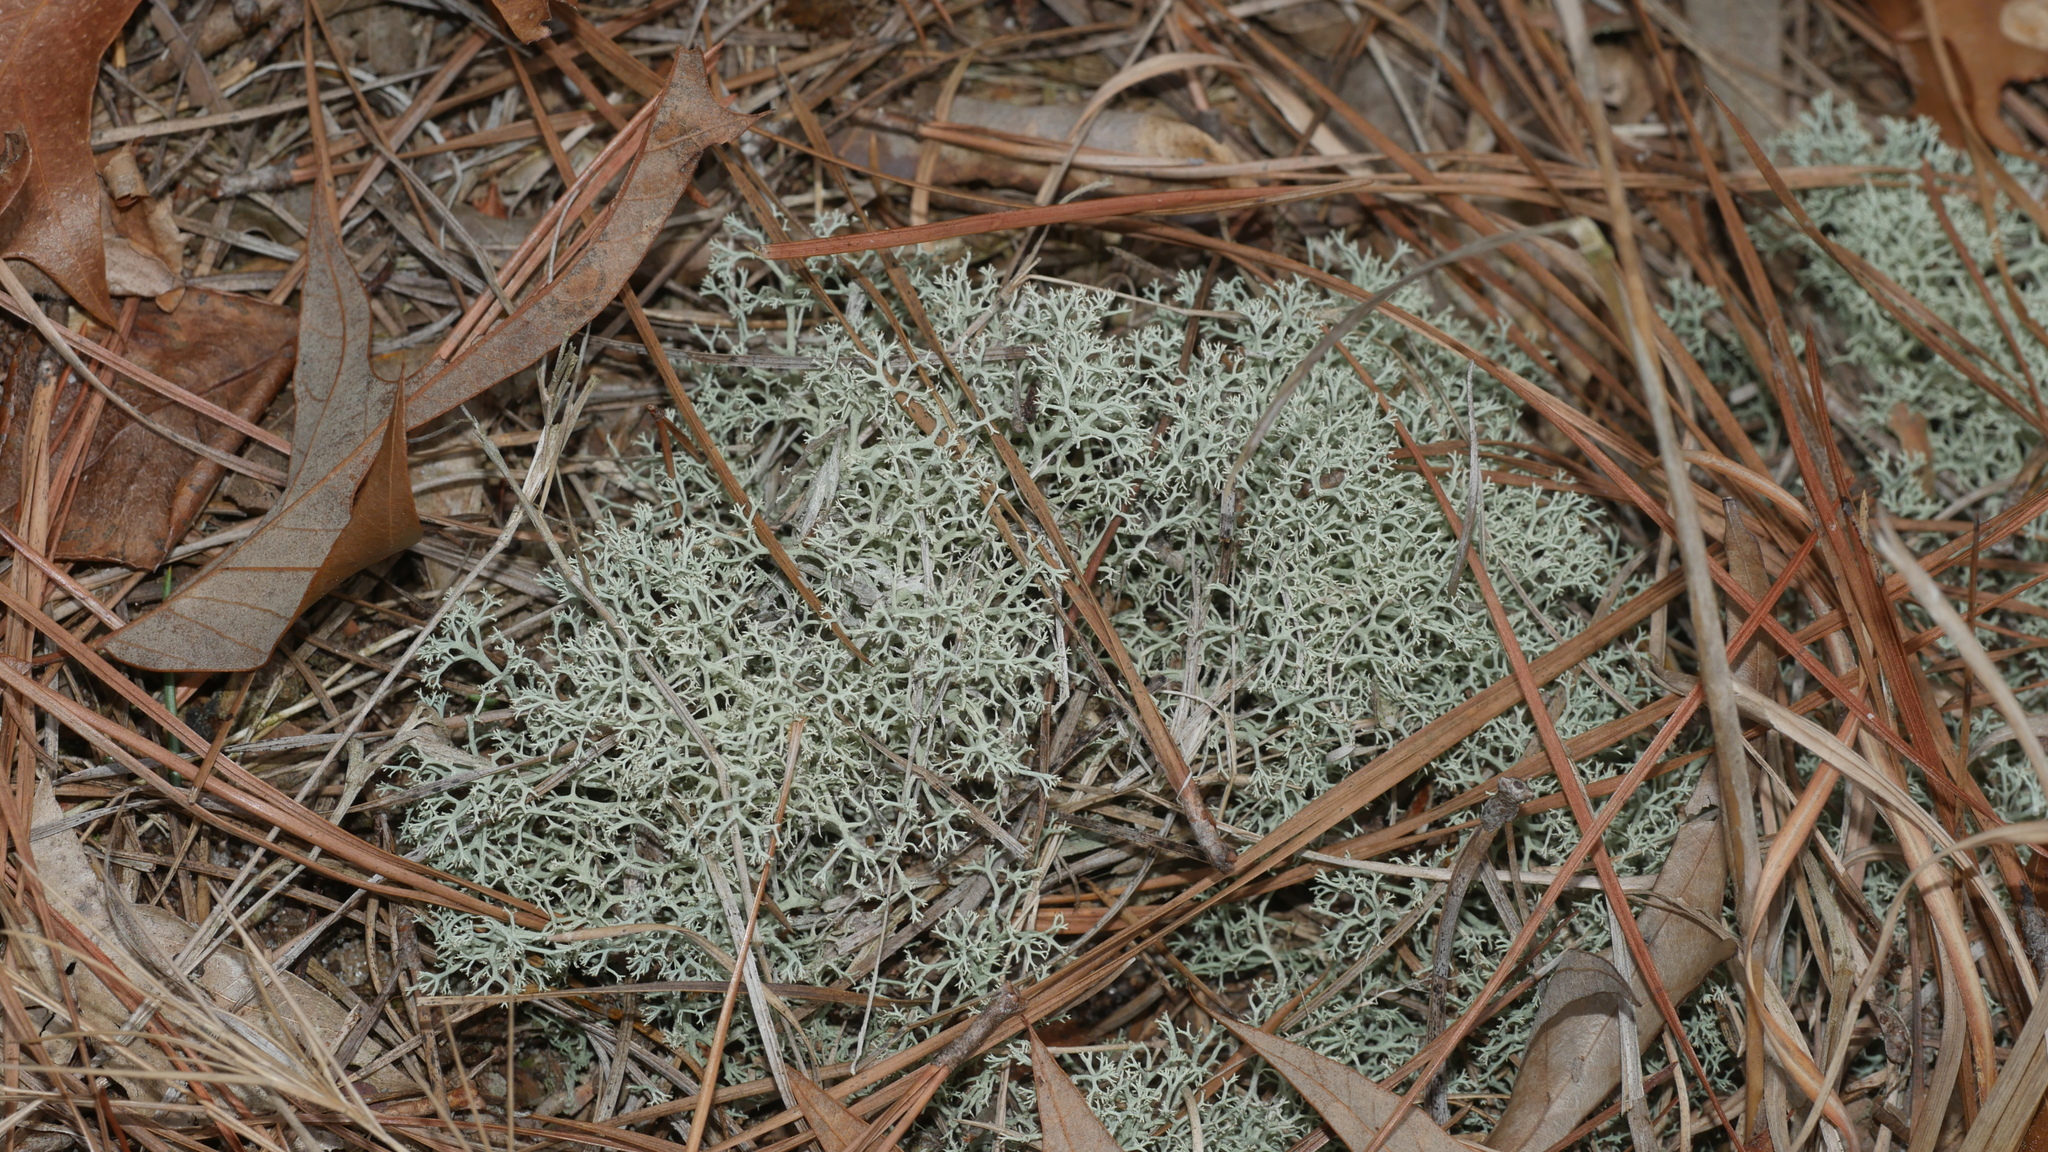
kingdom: Fungi
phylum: Ascomycota
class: Lecanoromycetes
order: Lecanorales
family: Cladoniaceae
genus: Cladonia
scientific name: Cladonia subtenuis
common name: Dixie reindeer lichen
